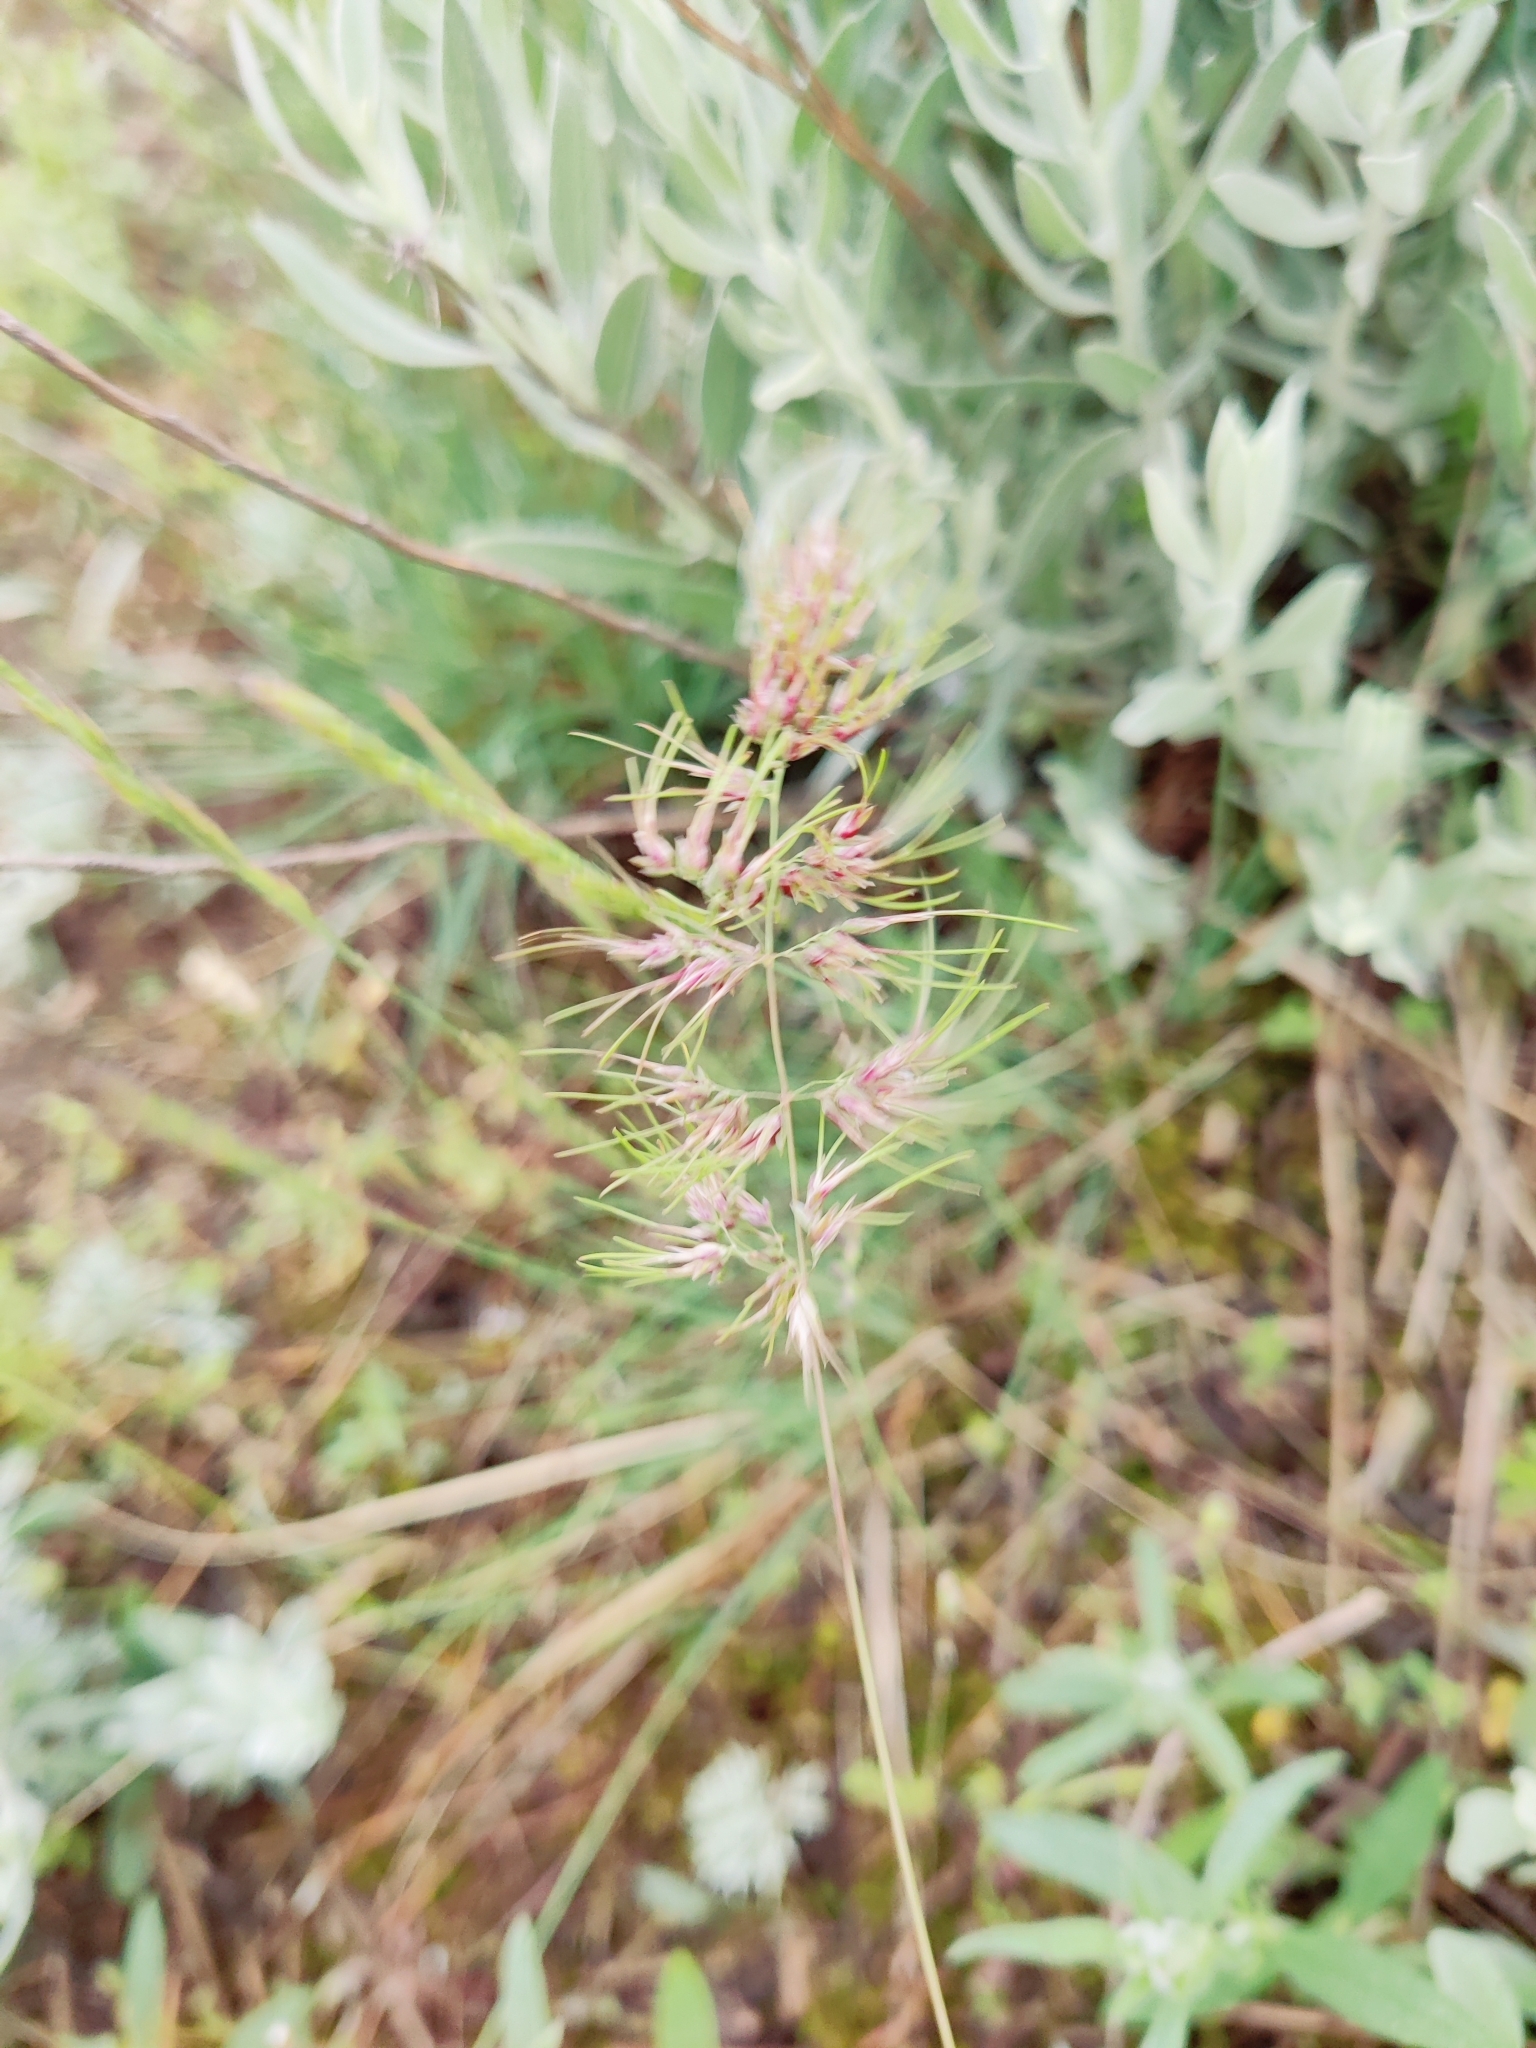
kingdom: Plantae
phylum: Tracheophyta
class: Liliopsida
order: Poales
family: Poaceae
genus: Poa
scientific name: Poa bulbosa
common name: Bulbous bluegrass
